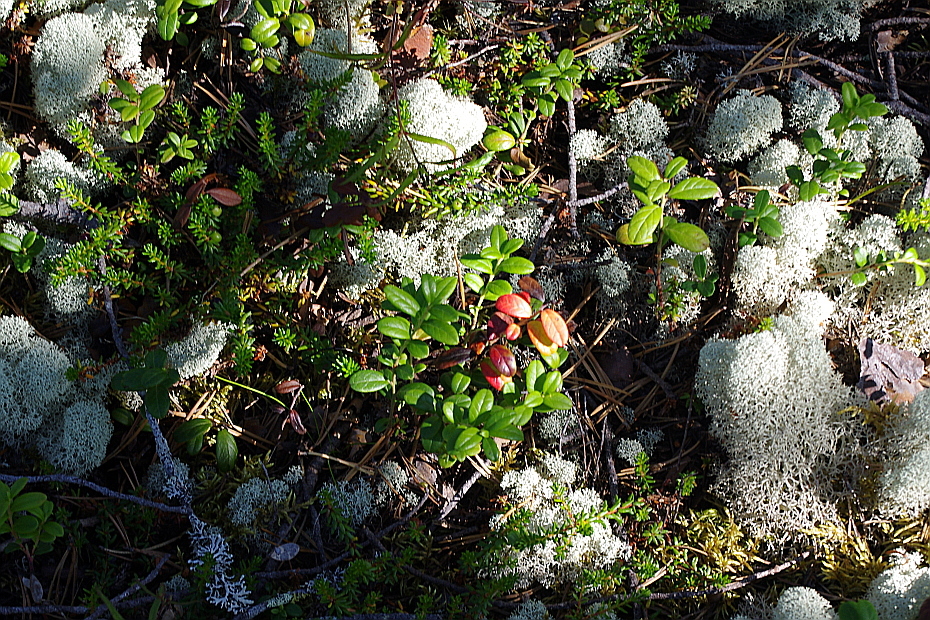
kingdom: Plantae
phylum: Tracheophyta
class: Magnoliopsida
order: Ericales
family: Ericaceae
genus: Vaccinium
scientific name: Vaccinium vitis-idaea
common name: Cowberry
